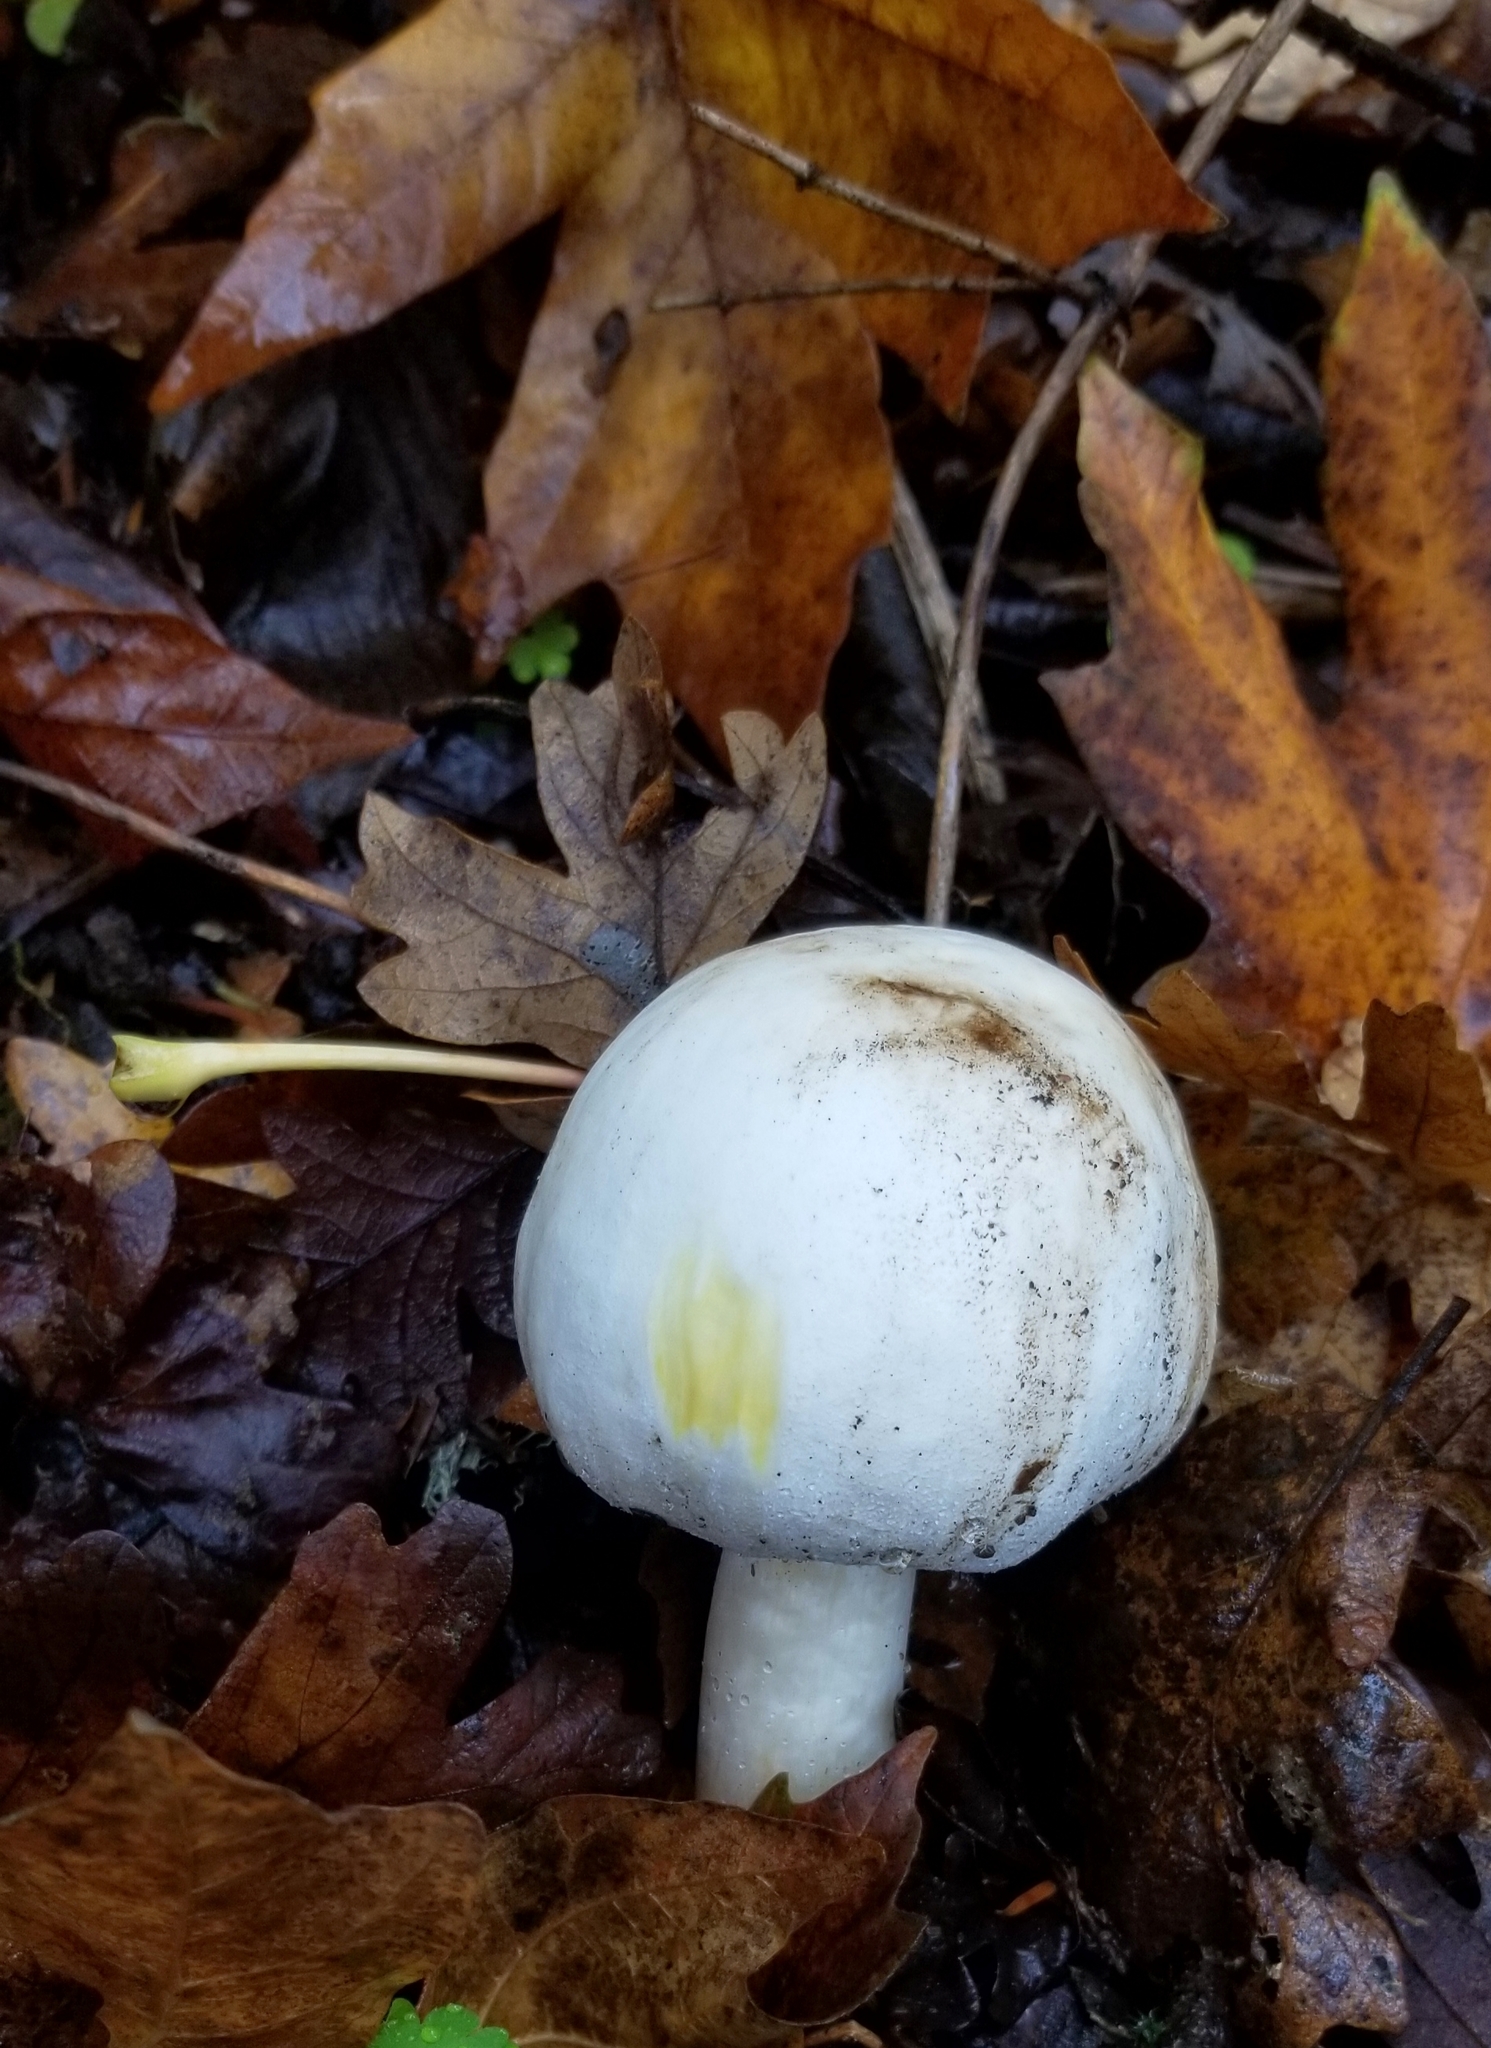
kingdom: Fungi
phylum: Basidiomycota
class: Agaricomycetes
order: Agaricales
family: Agaricaceae
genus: Agaricus
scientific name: Agaricus xanthodermus
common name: Yellow stainer
